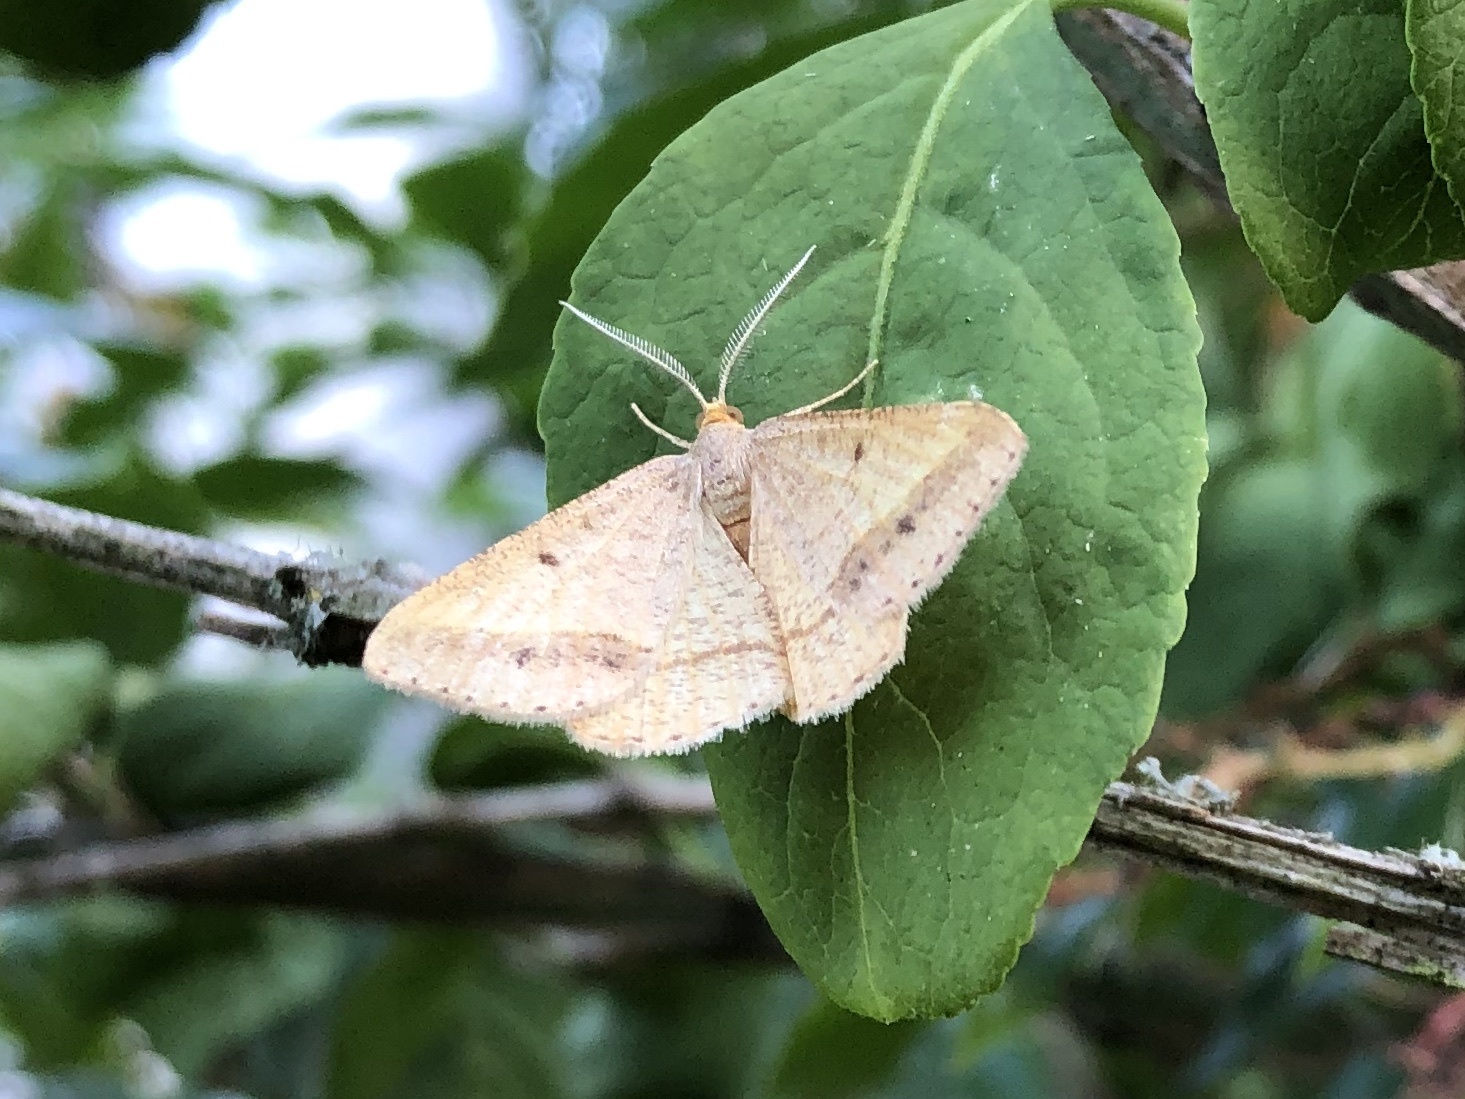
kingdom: Animalia
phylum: Arthropoda
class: Insecta
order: Lepidoptera
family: Geometridae
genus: Tephrina
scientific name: Tephrina arenacearia
